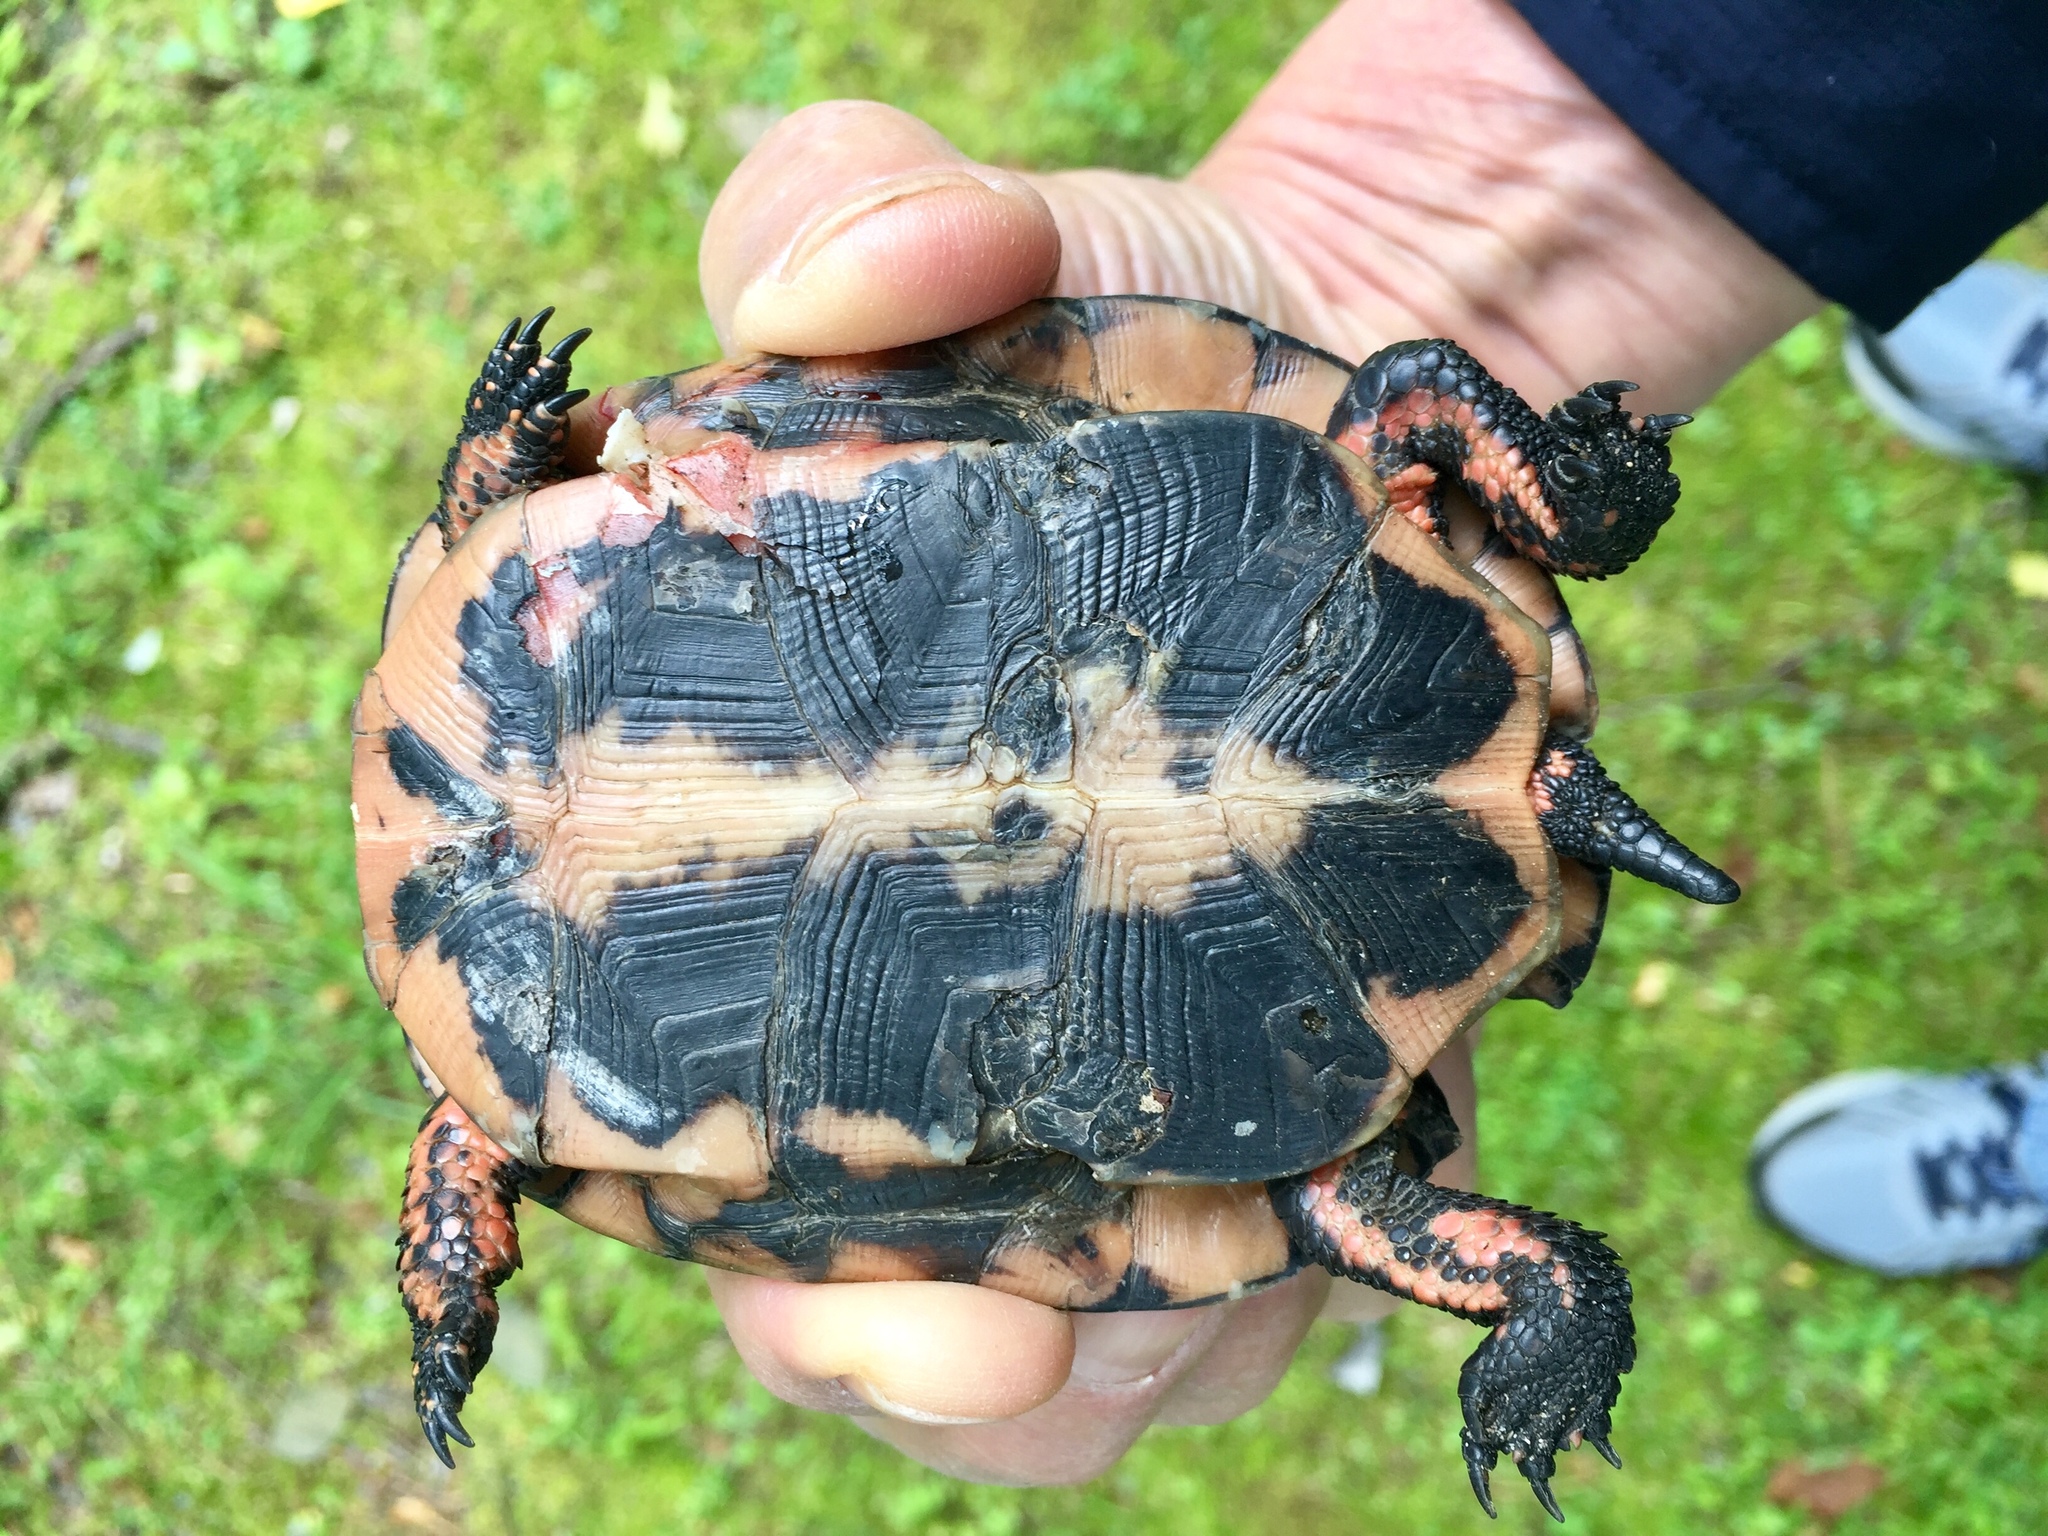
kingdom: Animalia
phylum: Chordata
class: Testudines
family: Emydidae
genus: Clemmys
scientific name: Clemmys guttata
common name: Spotted turtle
